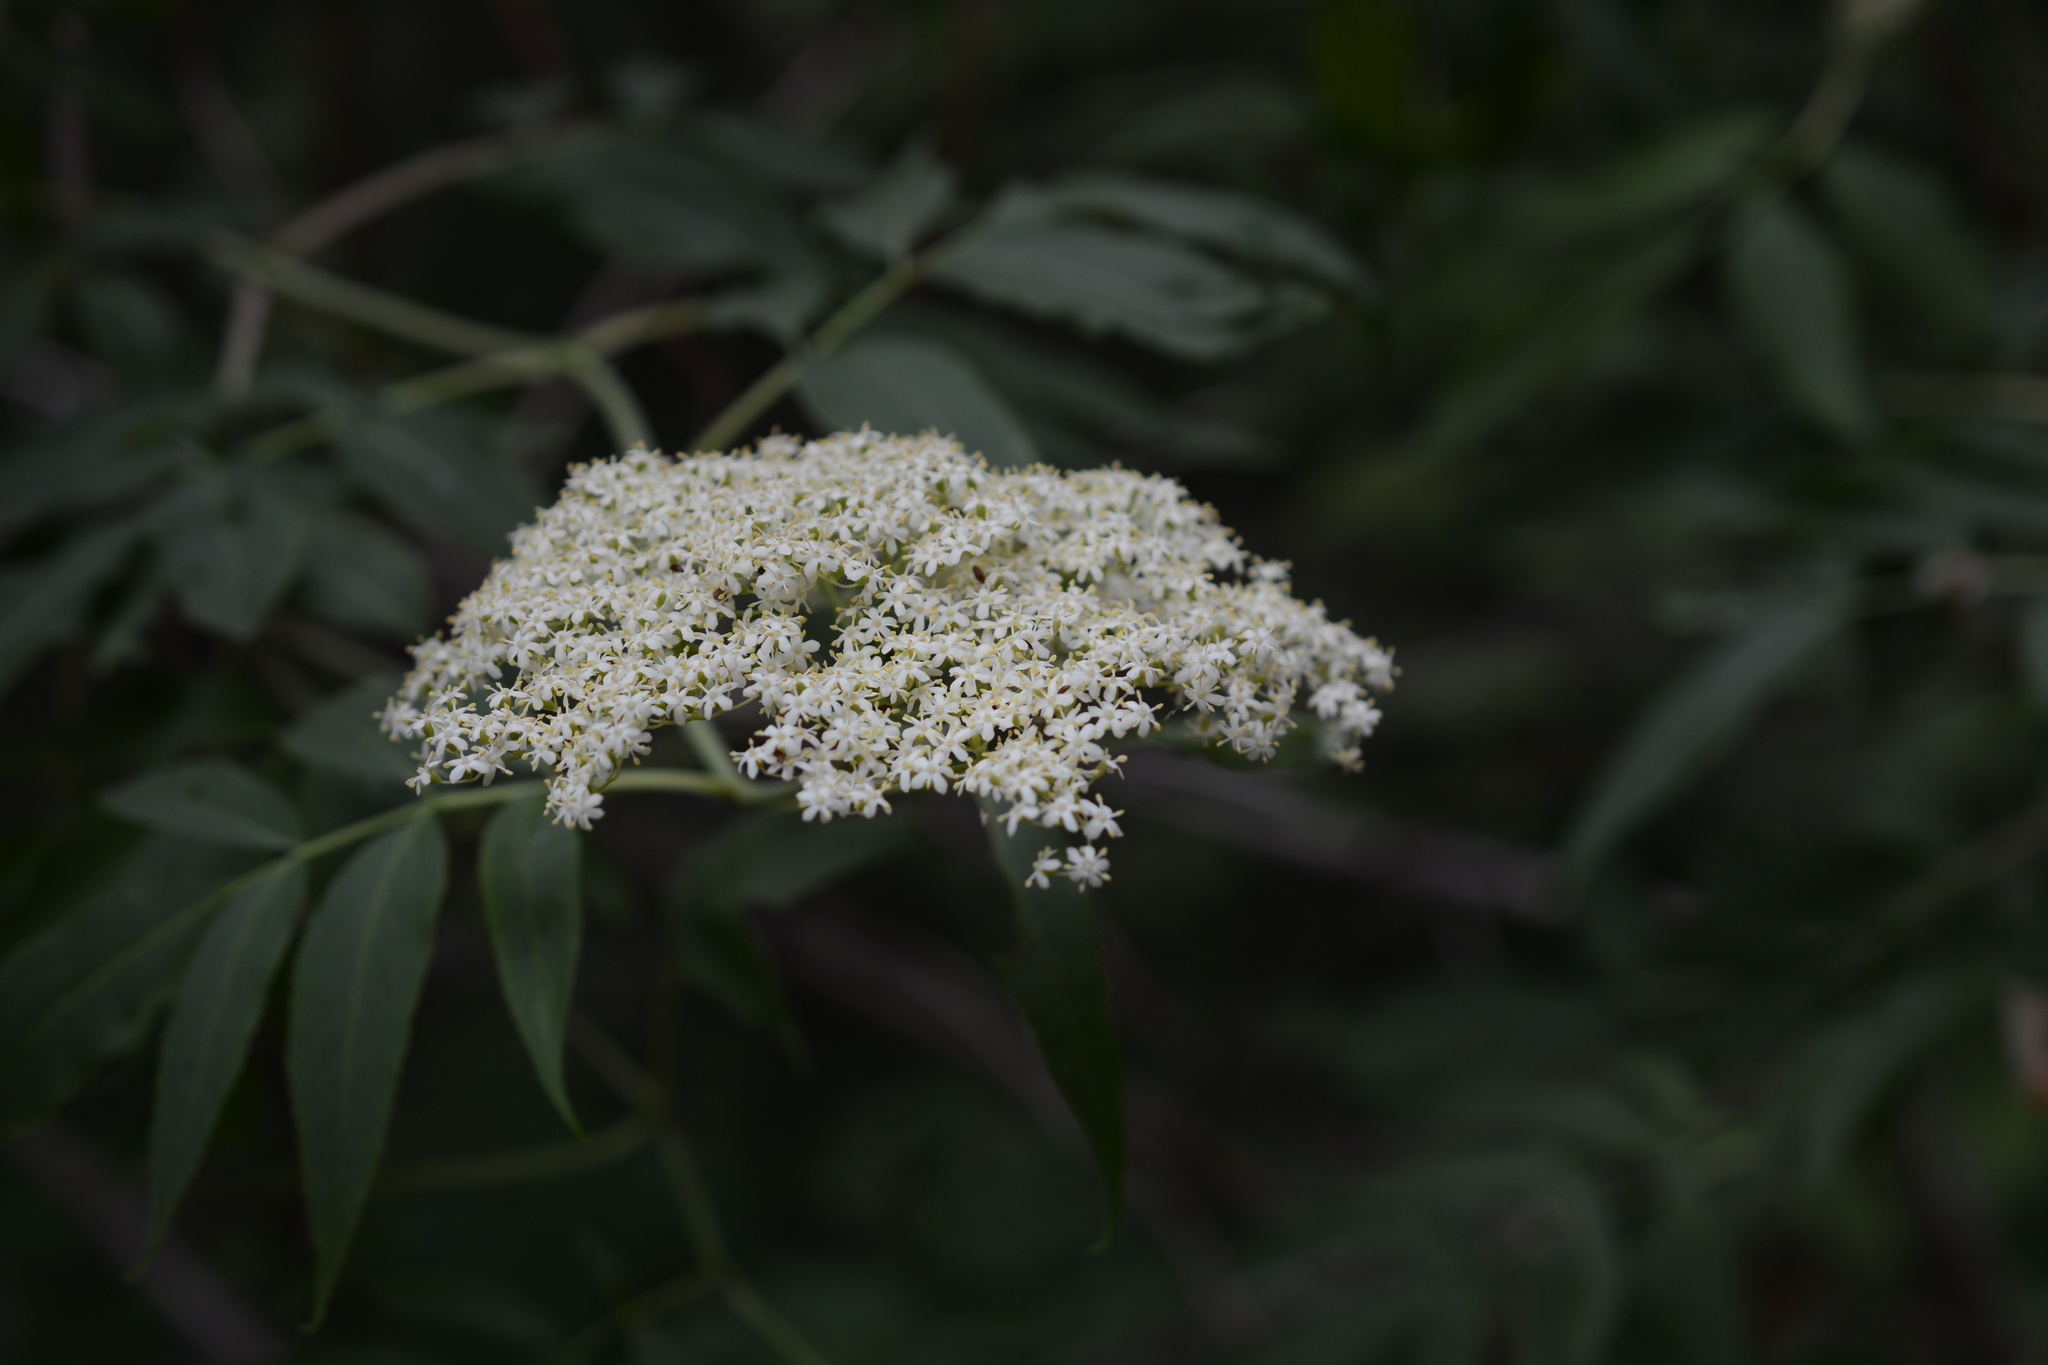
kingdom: Plantae
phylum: Tracheophyta
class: Magnoliopsida
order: Dipsacales
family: Viburnaceae
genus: Sambucus
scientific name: Sambucus cerulea
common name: Blue elder
